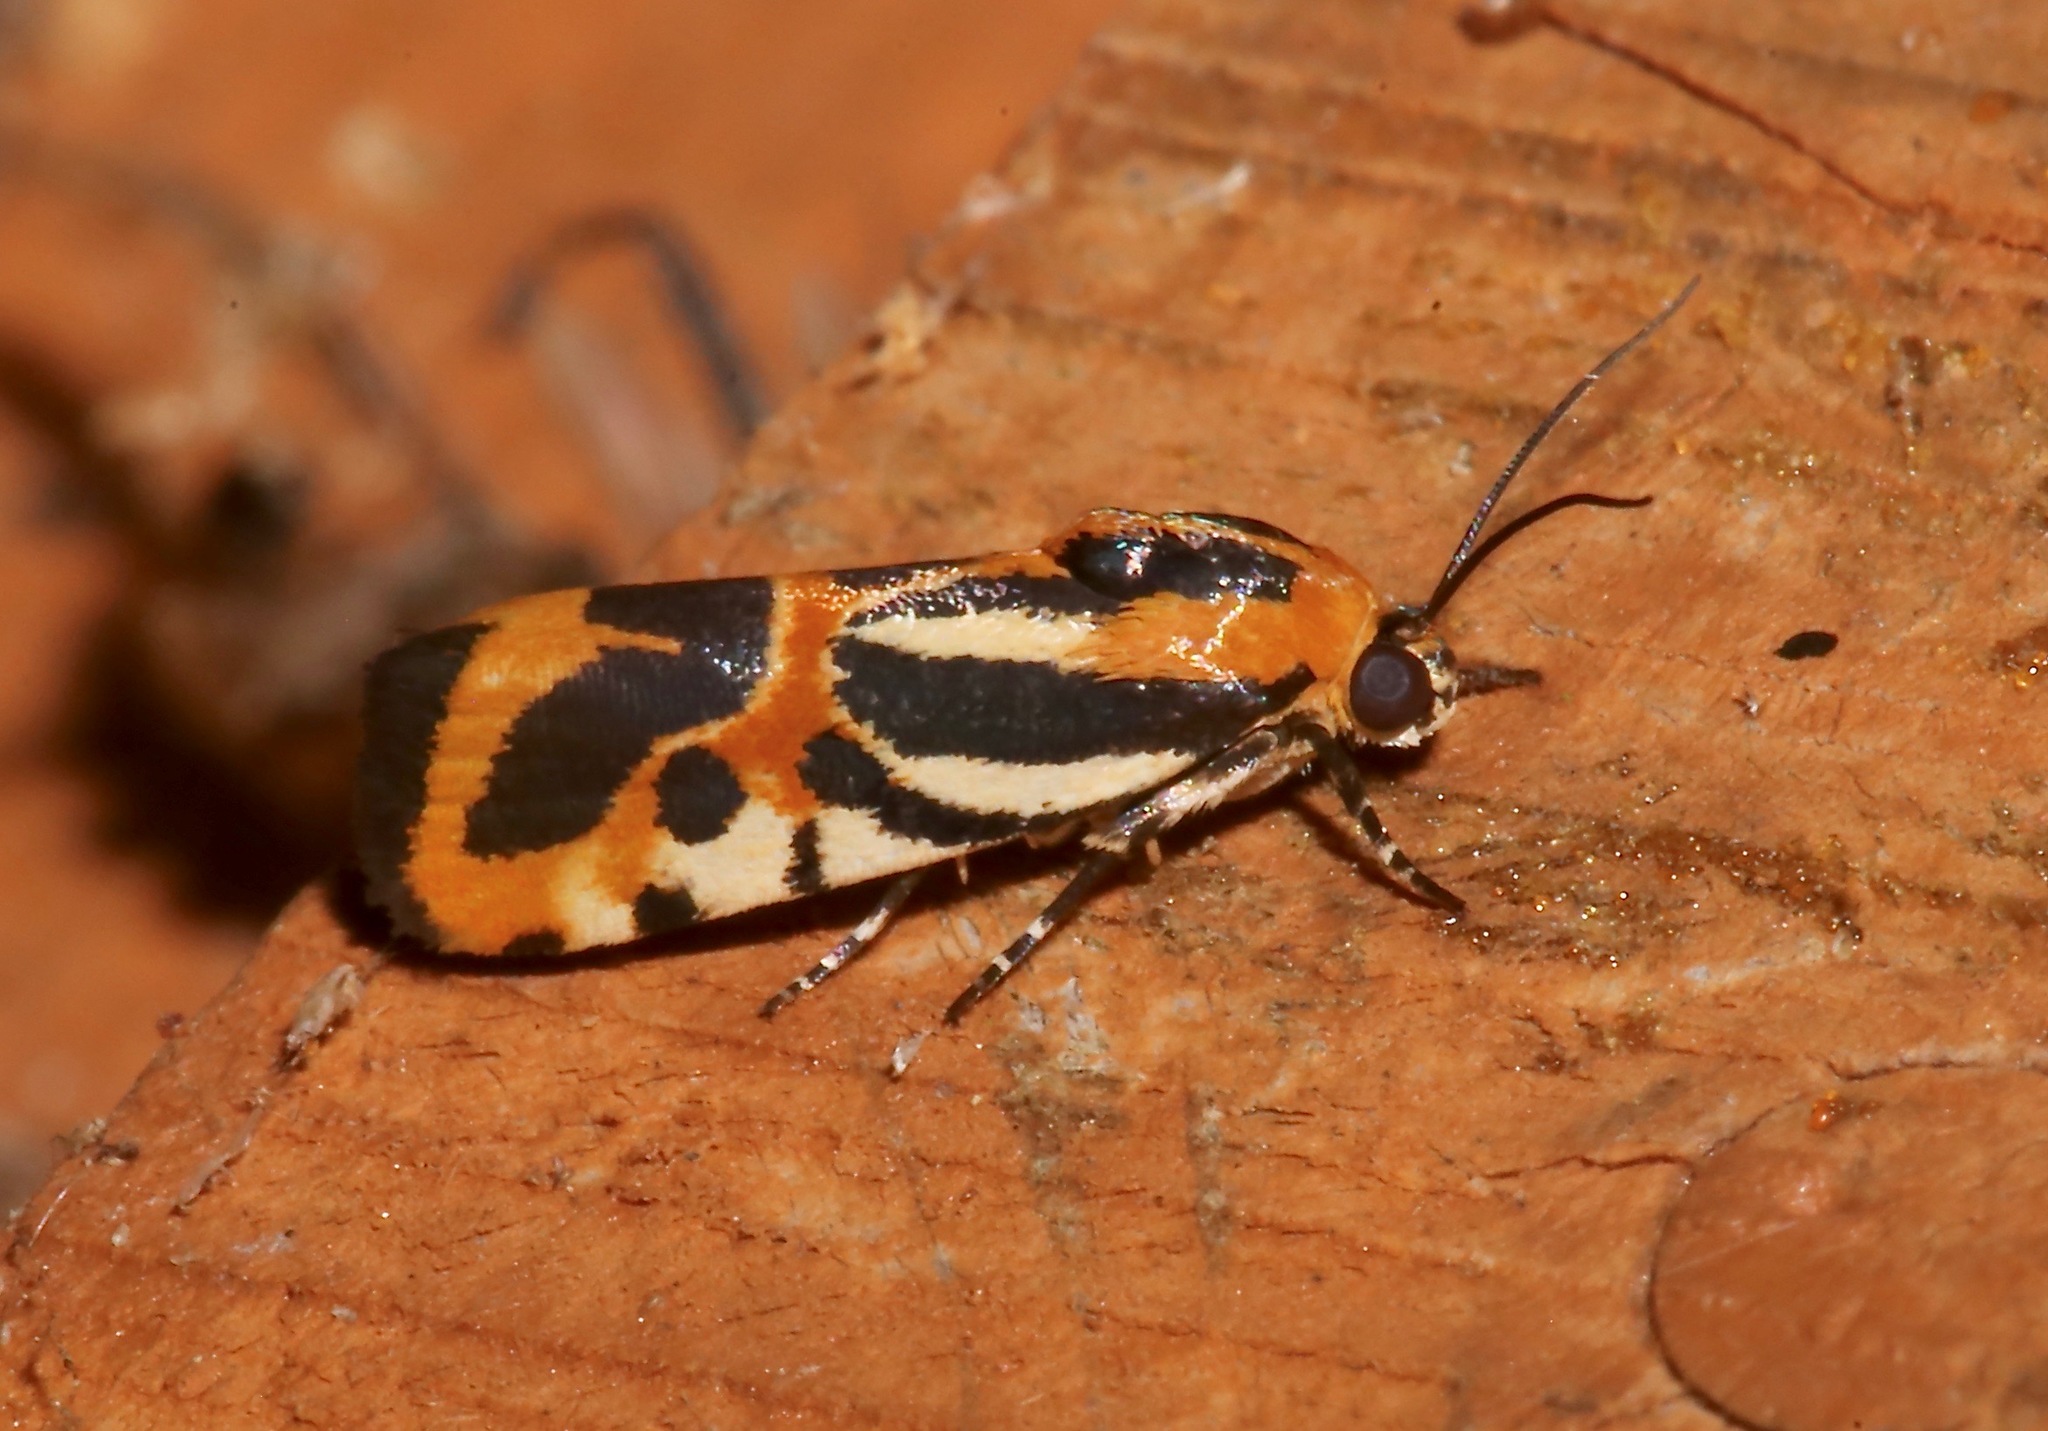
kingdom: Animalia
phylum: Arthropoda
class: Insecta
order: Lepidoptera
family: Noctuidae
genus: Acontia
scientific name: Acontia onagrus
